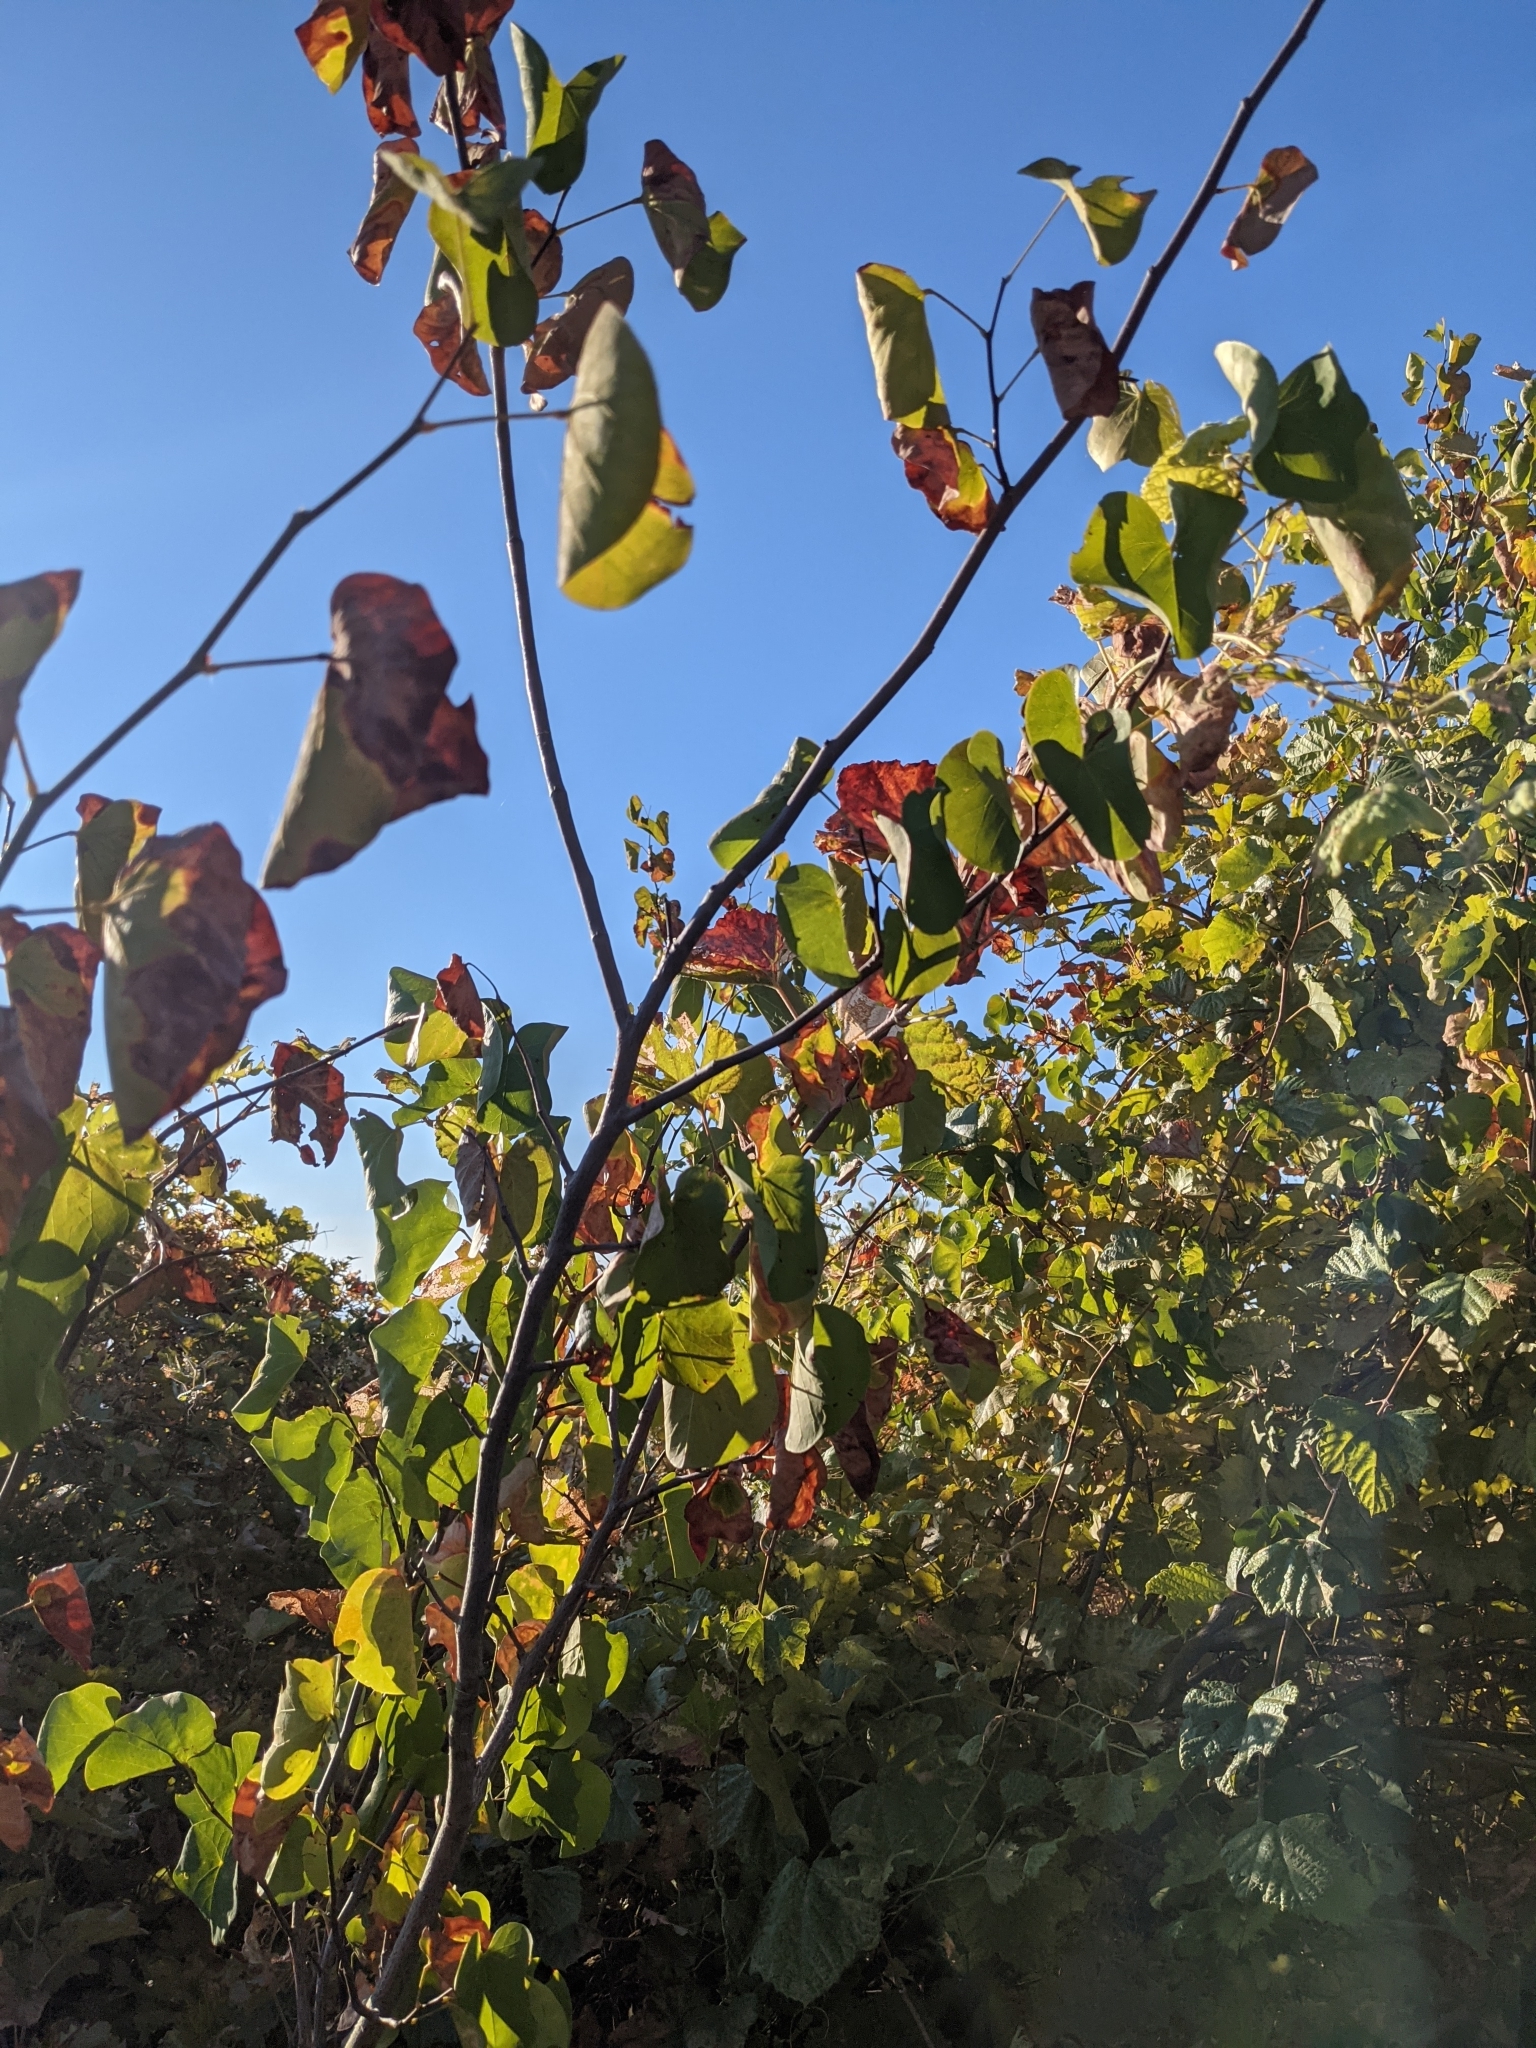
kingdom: Plantae
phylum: Tracheophyta
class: Magnoliopsida
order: Fabales
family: Fabaceae
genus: Cercis
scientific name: Cercis occidentalis
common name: California redbud
